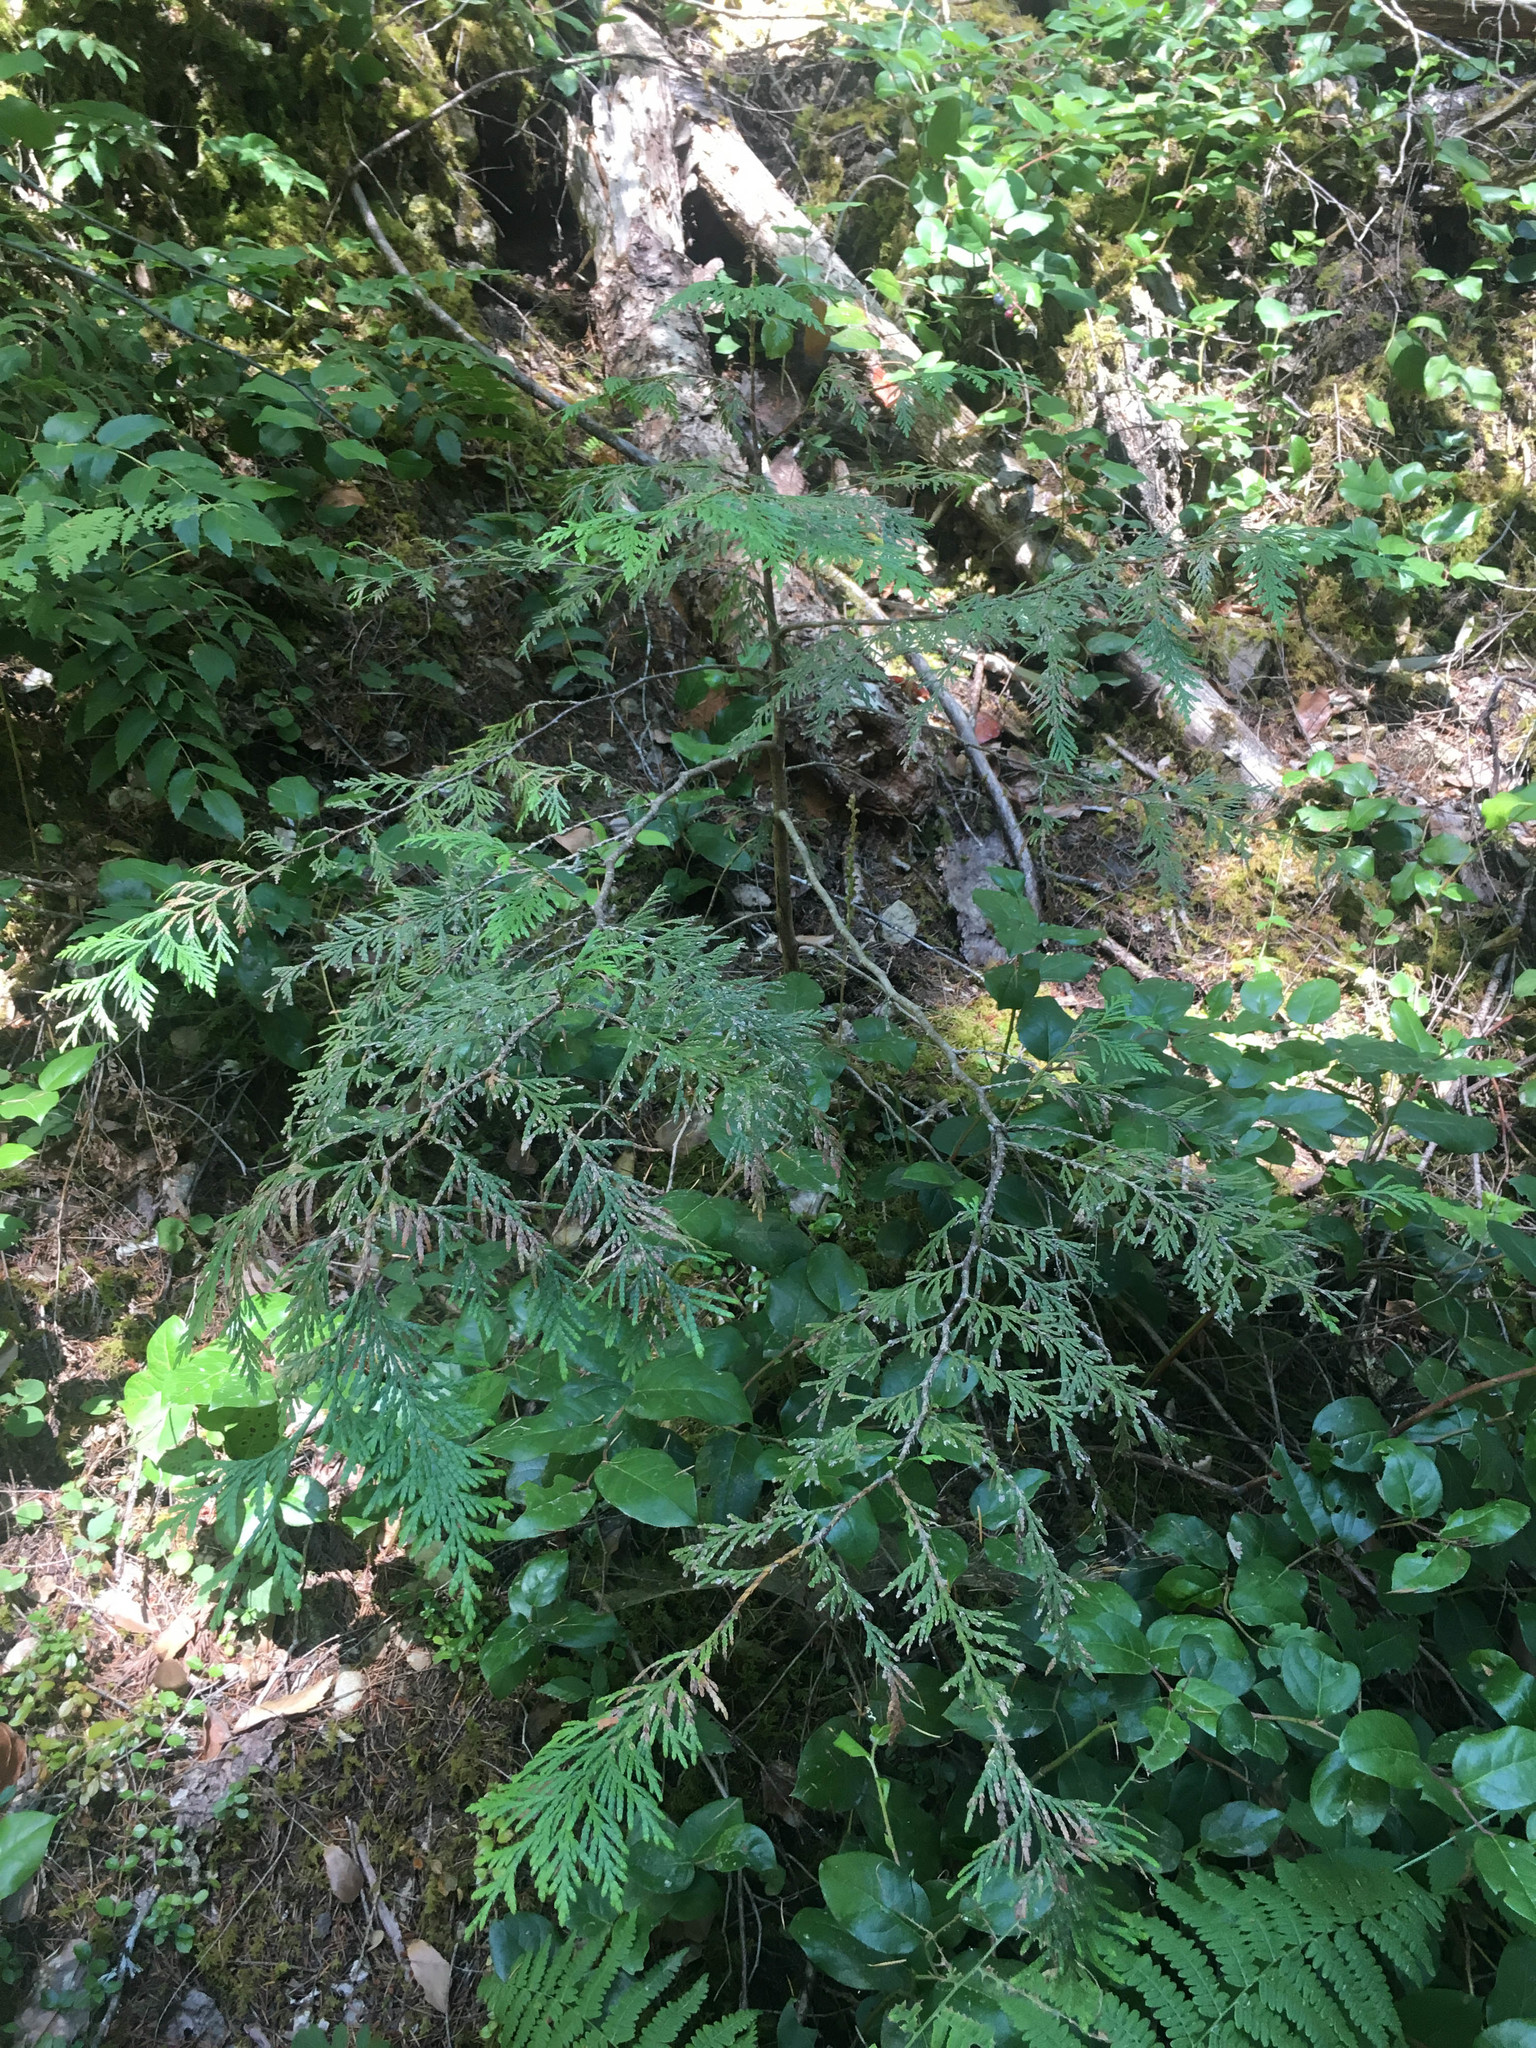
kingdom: Plantae
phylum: Tracheophyta
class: Pinopsida
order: Pinales
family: Cupressaceae
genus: Thuja
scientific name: Thuja plicata
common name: Western red-cedar
